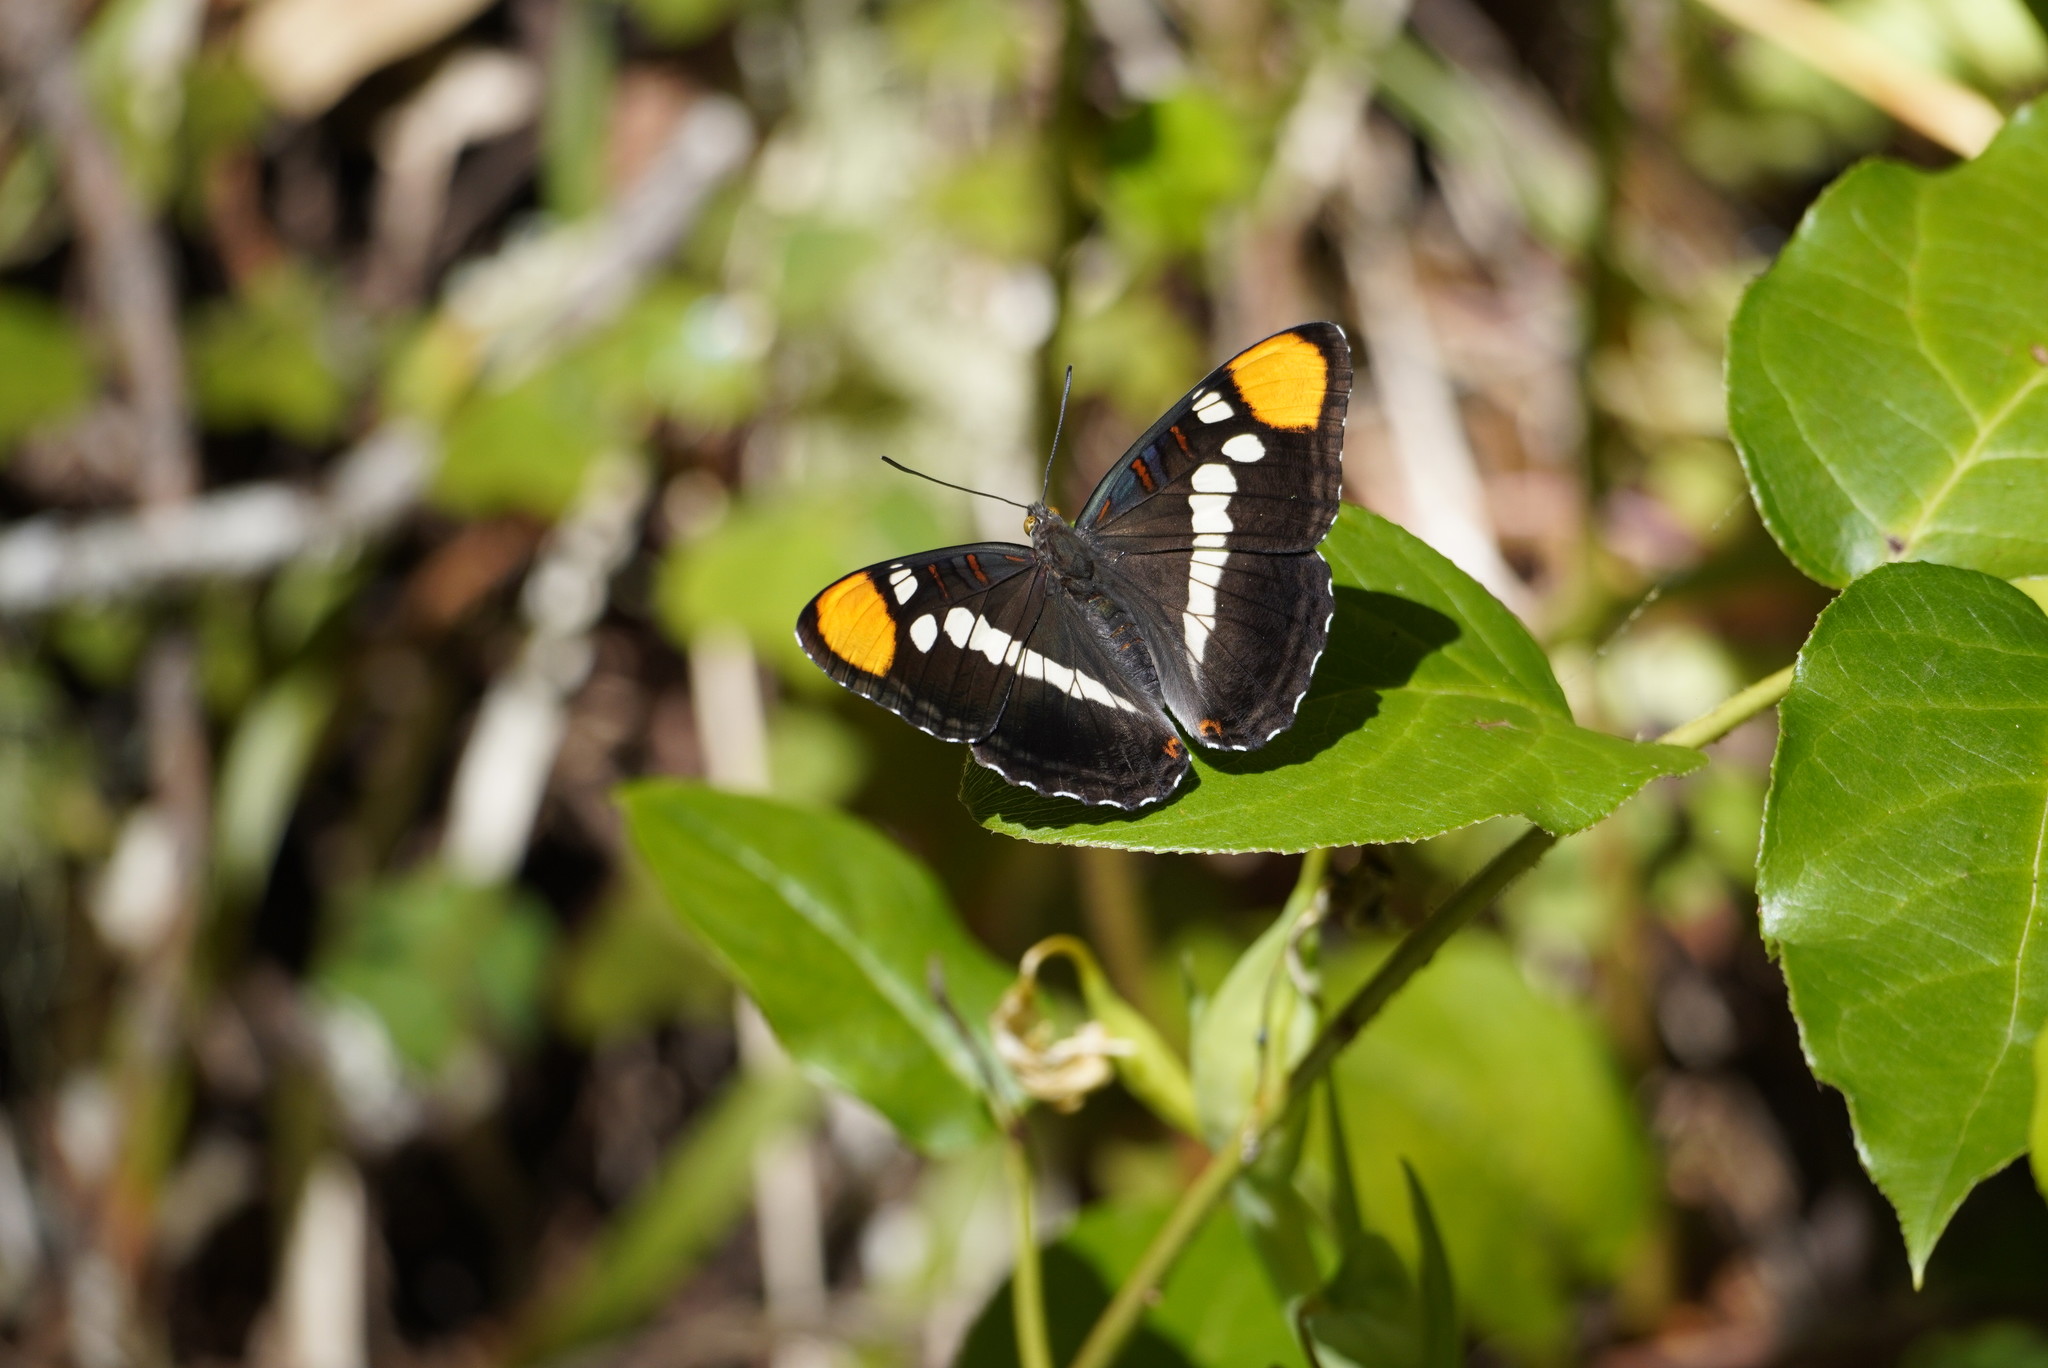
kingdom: Animalia
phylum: Arthropoda
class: Insecta
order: Lepidoptera
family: Nymphalidae
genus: Limenitis
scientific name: Limenitis bredowii
